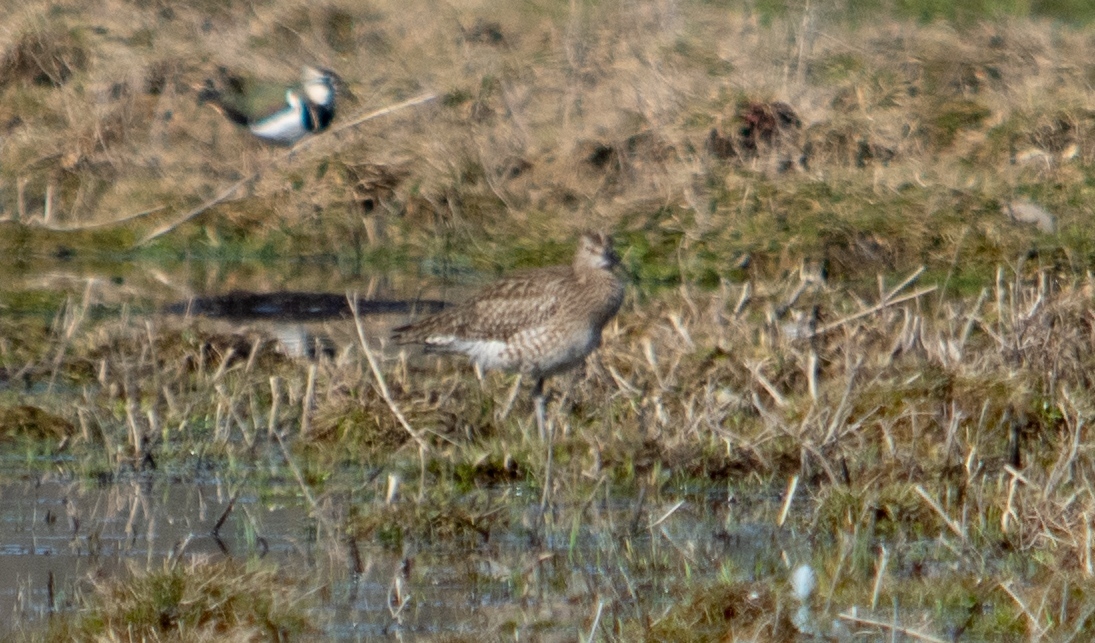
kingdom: Animalia
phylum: Chordata
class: Aves
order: Charadriiformes
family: Scolopacidae
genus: Numenius
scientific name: Numenius phaeopus
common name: Whimbrel
